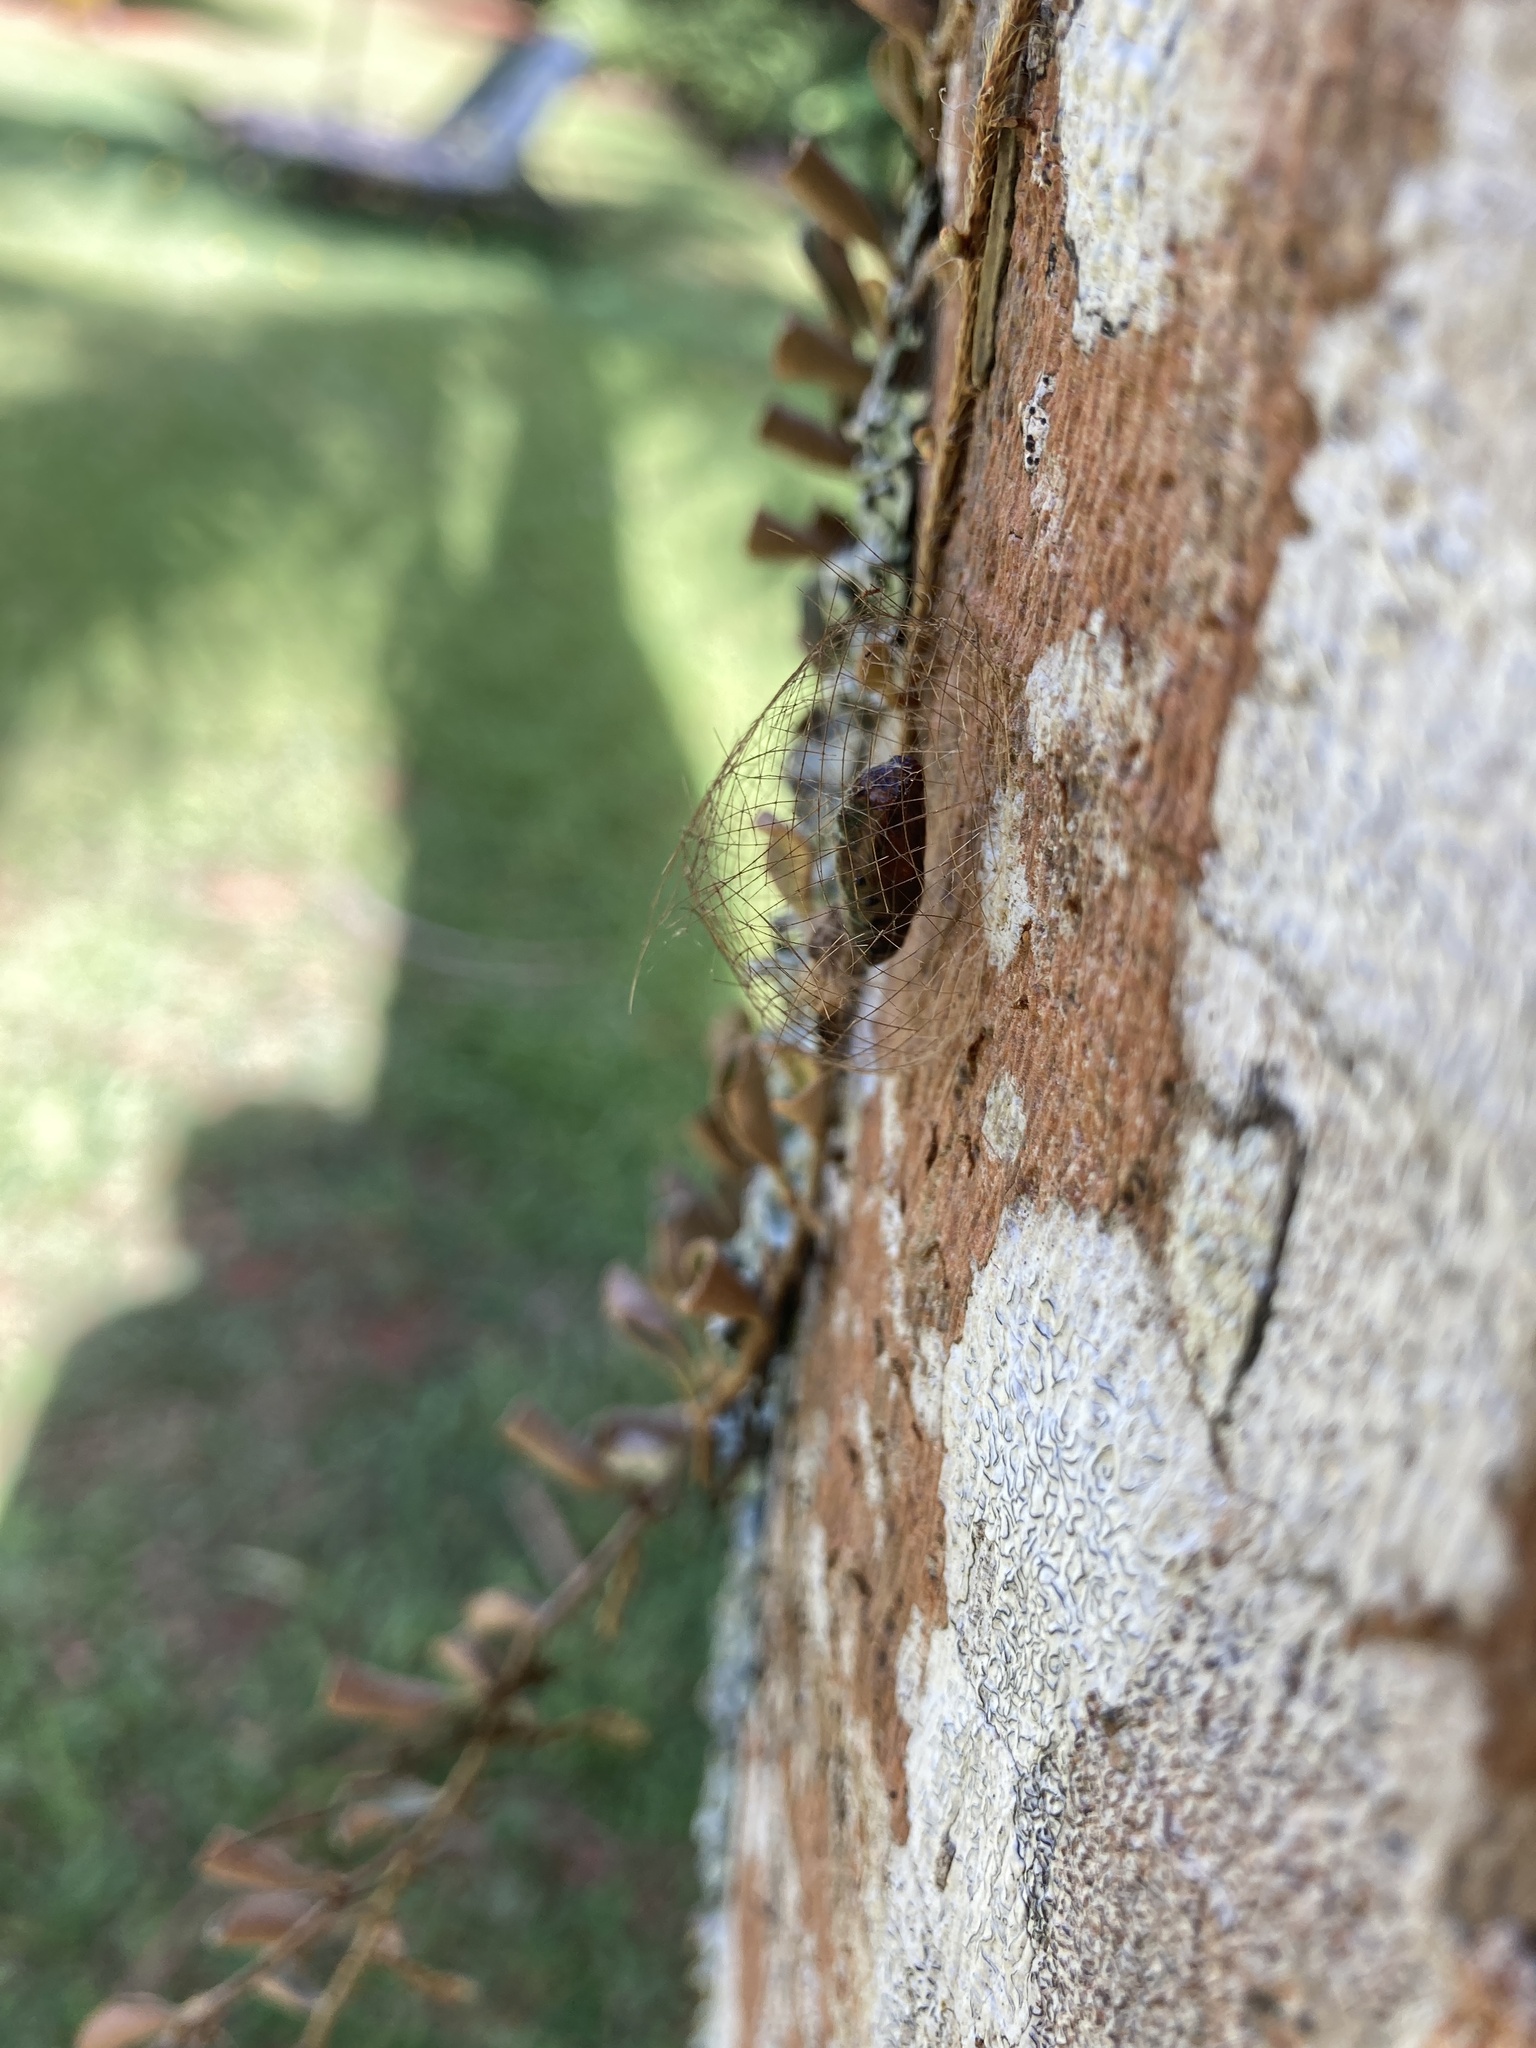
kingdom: Animalia
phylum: Arthropoda
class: Insecta
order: Lepidoptera
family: Erebidae
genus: Cyana
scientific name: Cyana meyricki
